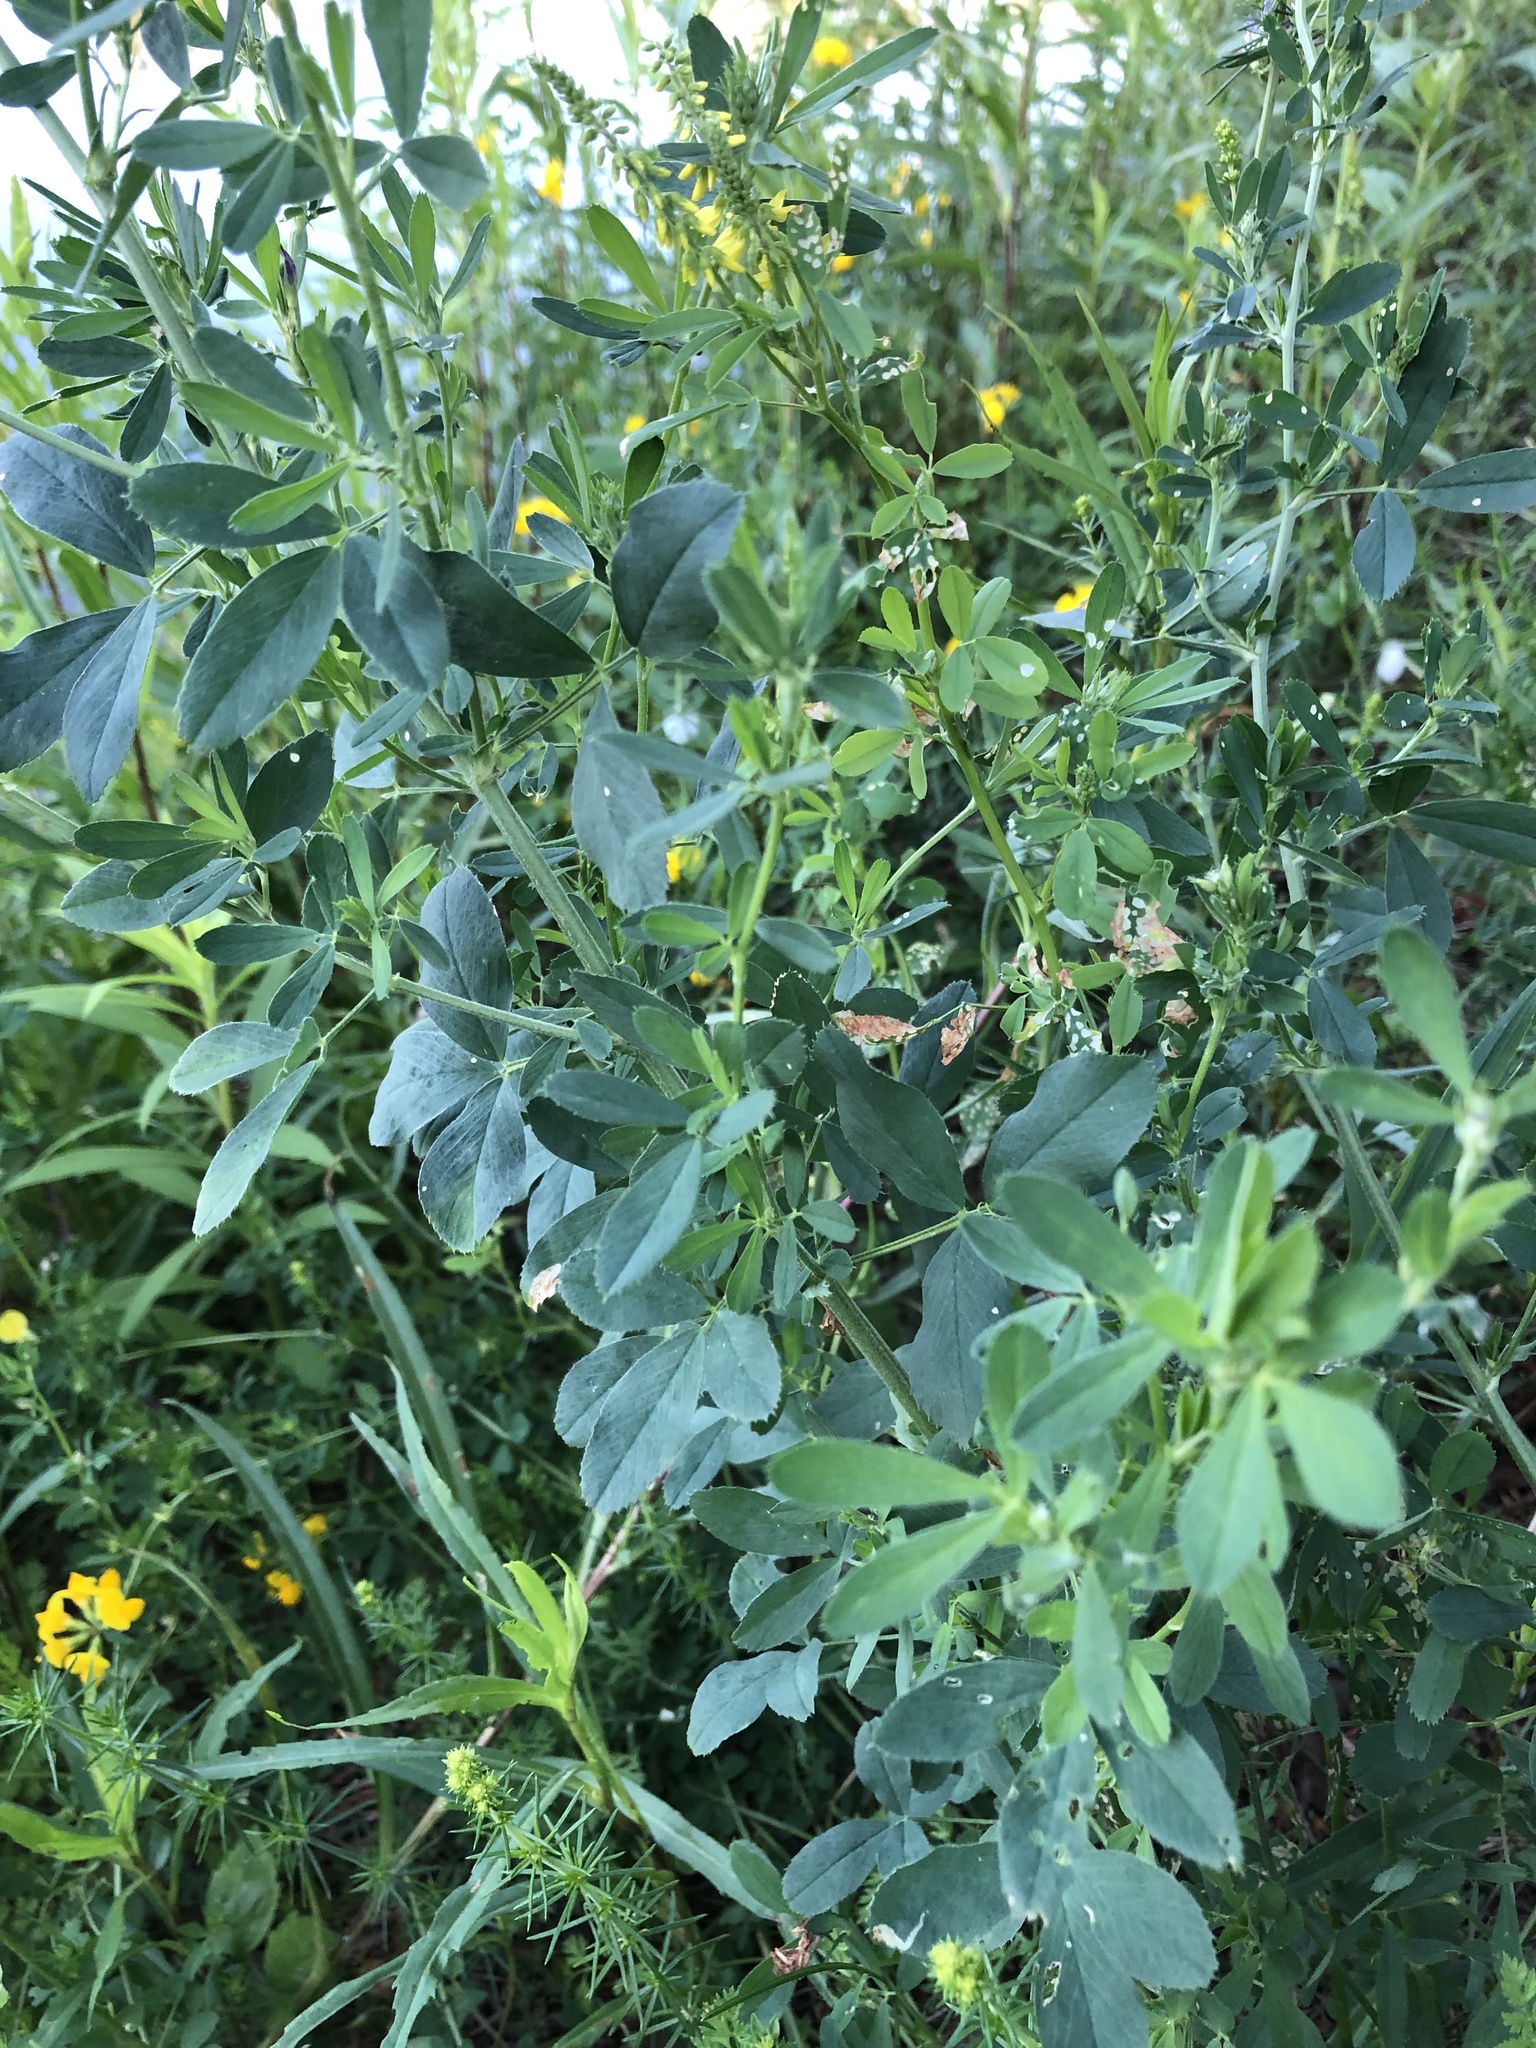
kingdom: Plantae
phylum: Tracheophyta
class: Magnoliopsida
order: Fabales
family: Fabaceae
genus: Melilotus
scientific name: Melilotus officinalis
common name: Sweetclover
